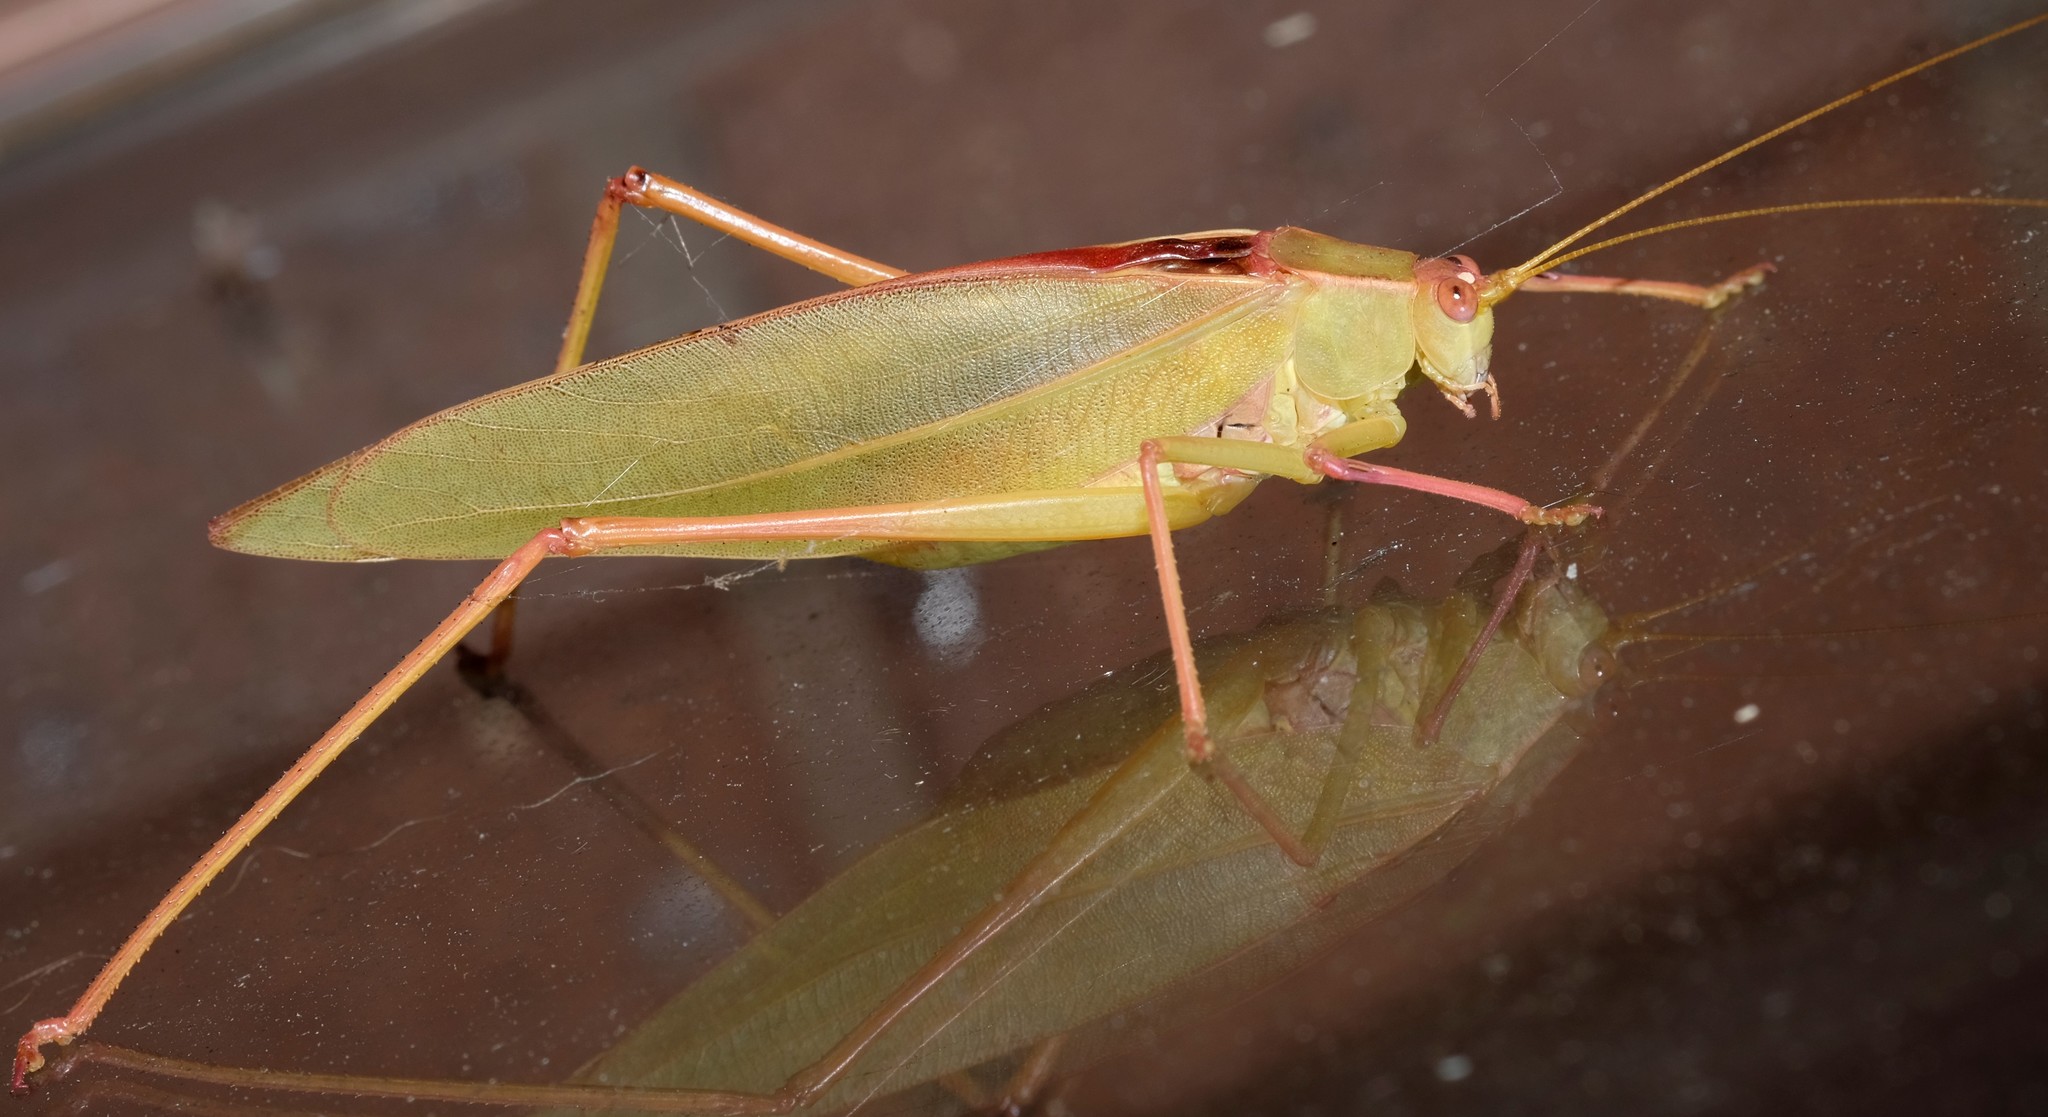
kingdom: Animalia
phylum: Arthropoda
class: Insecta
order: Orthoptera
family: Tettigoniidae
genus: Torbia
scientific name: Torbia viridissima
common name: Non-predaceous gum leaf katydid
